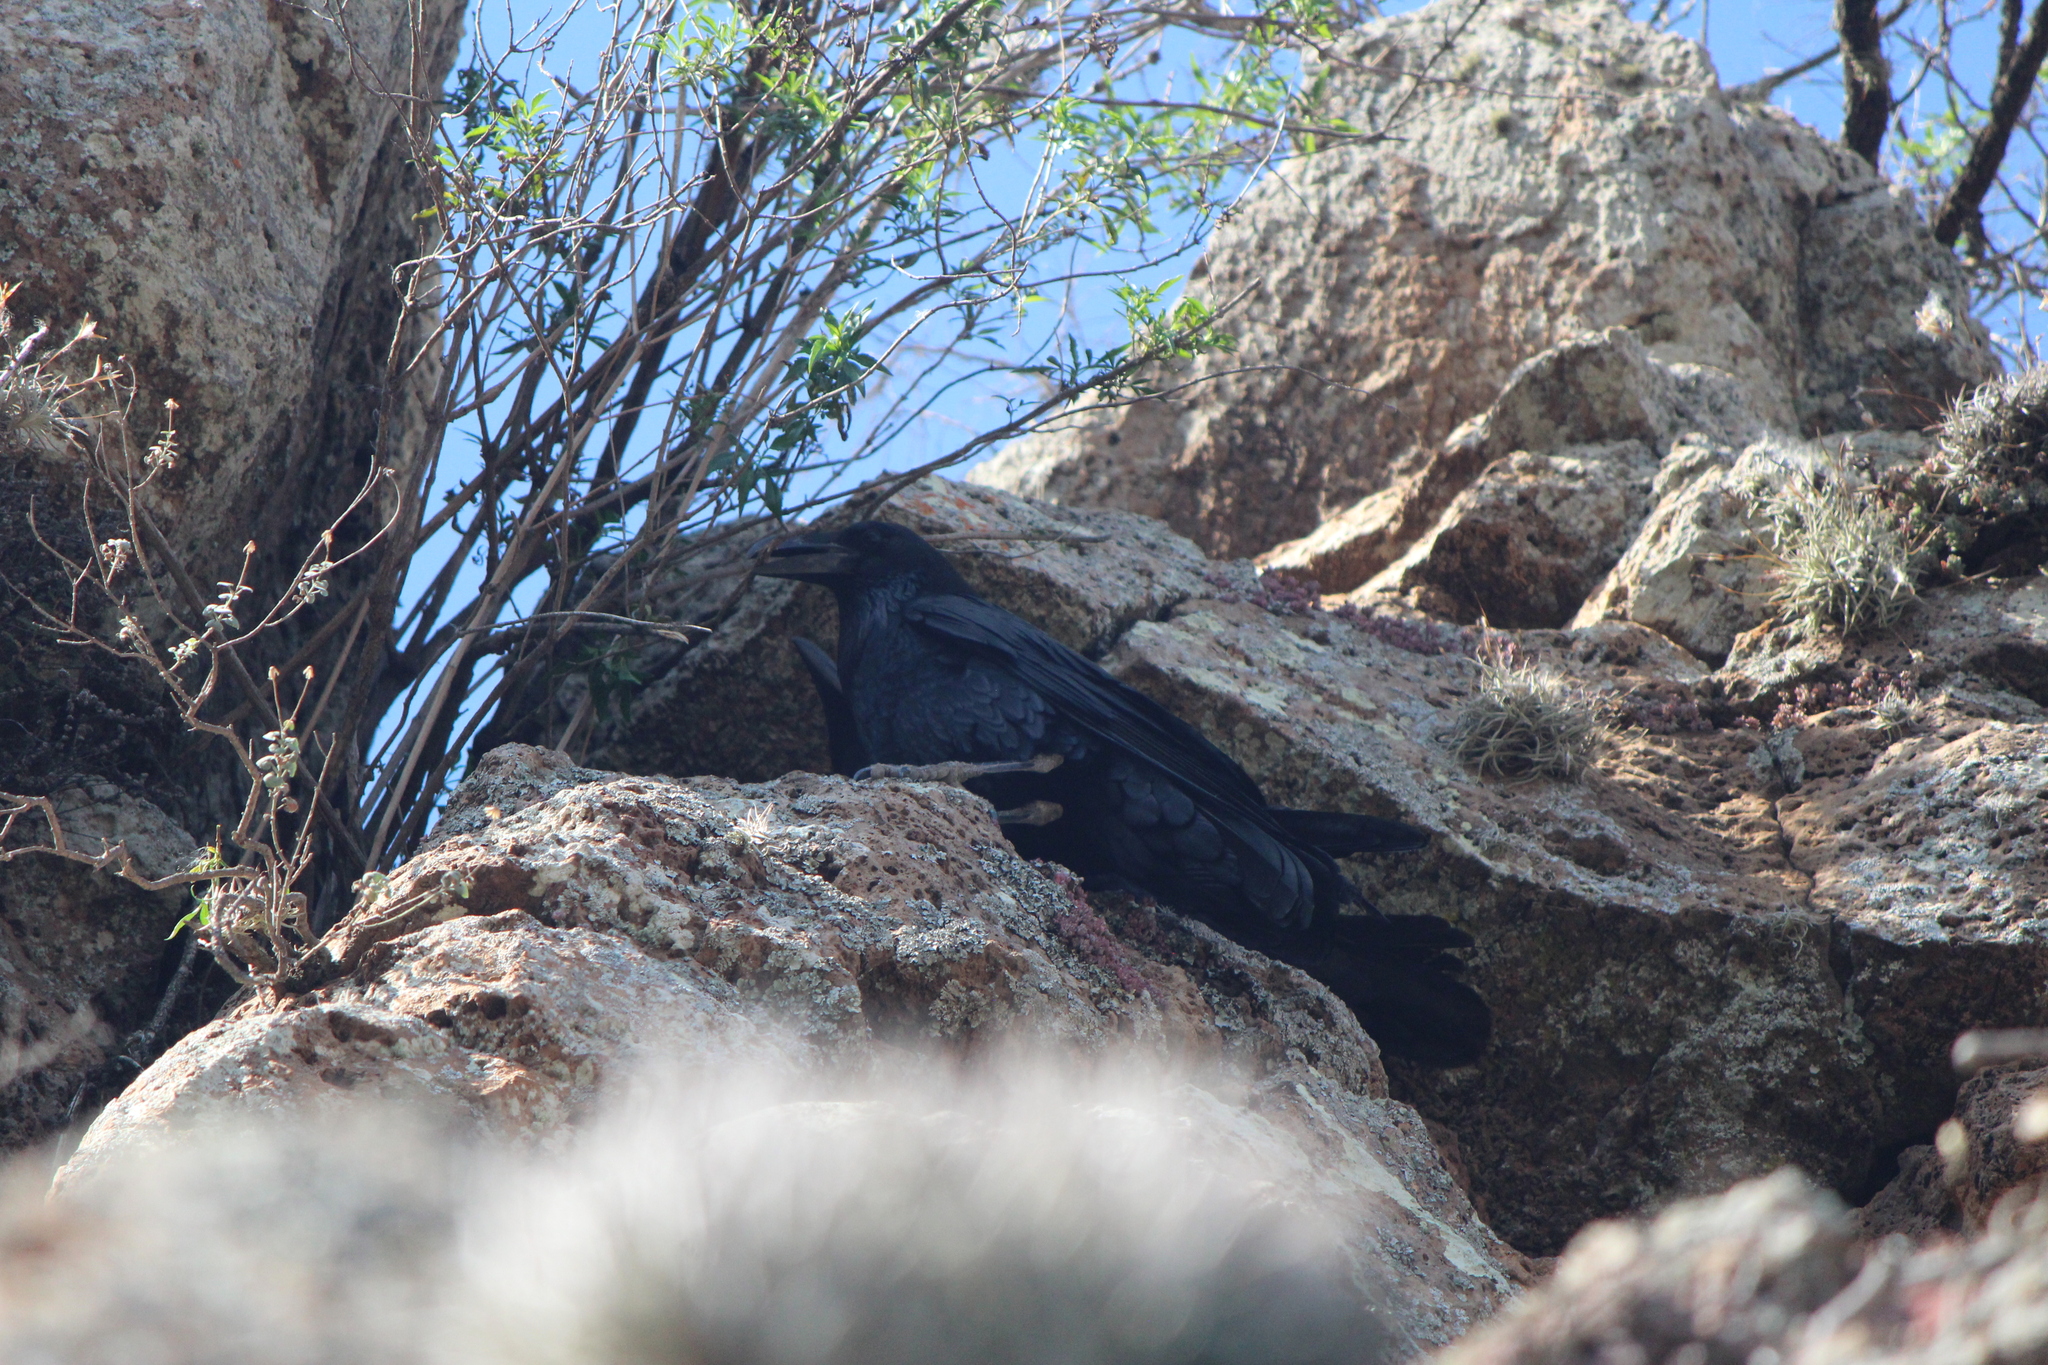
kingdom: Animalia
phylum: Chordata
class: Aves
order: Passeriformes
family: Corvidae
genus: Corvus
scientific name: Corvus corax
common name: Common raven
